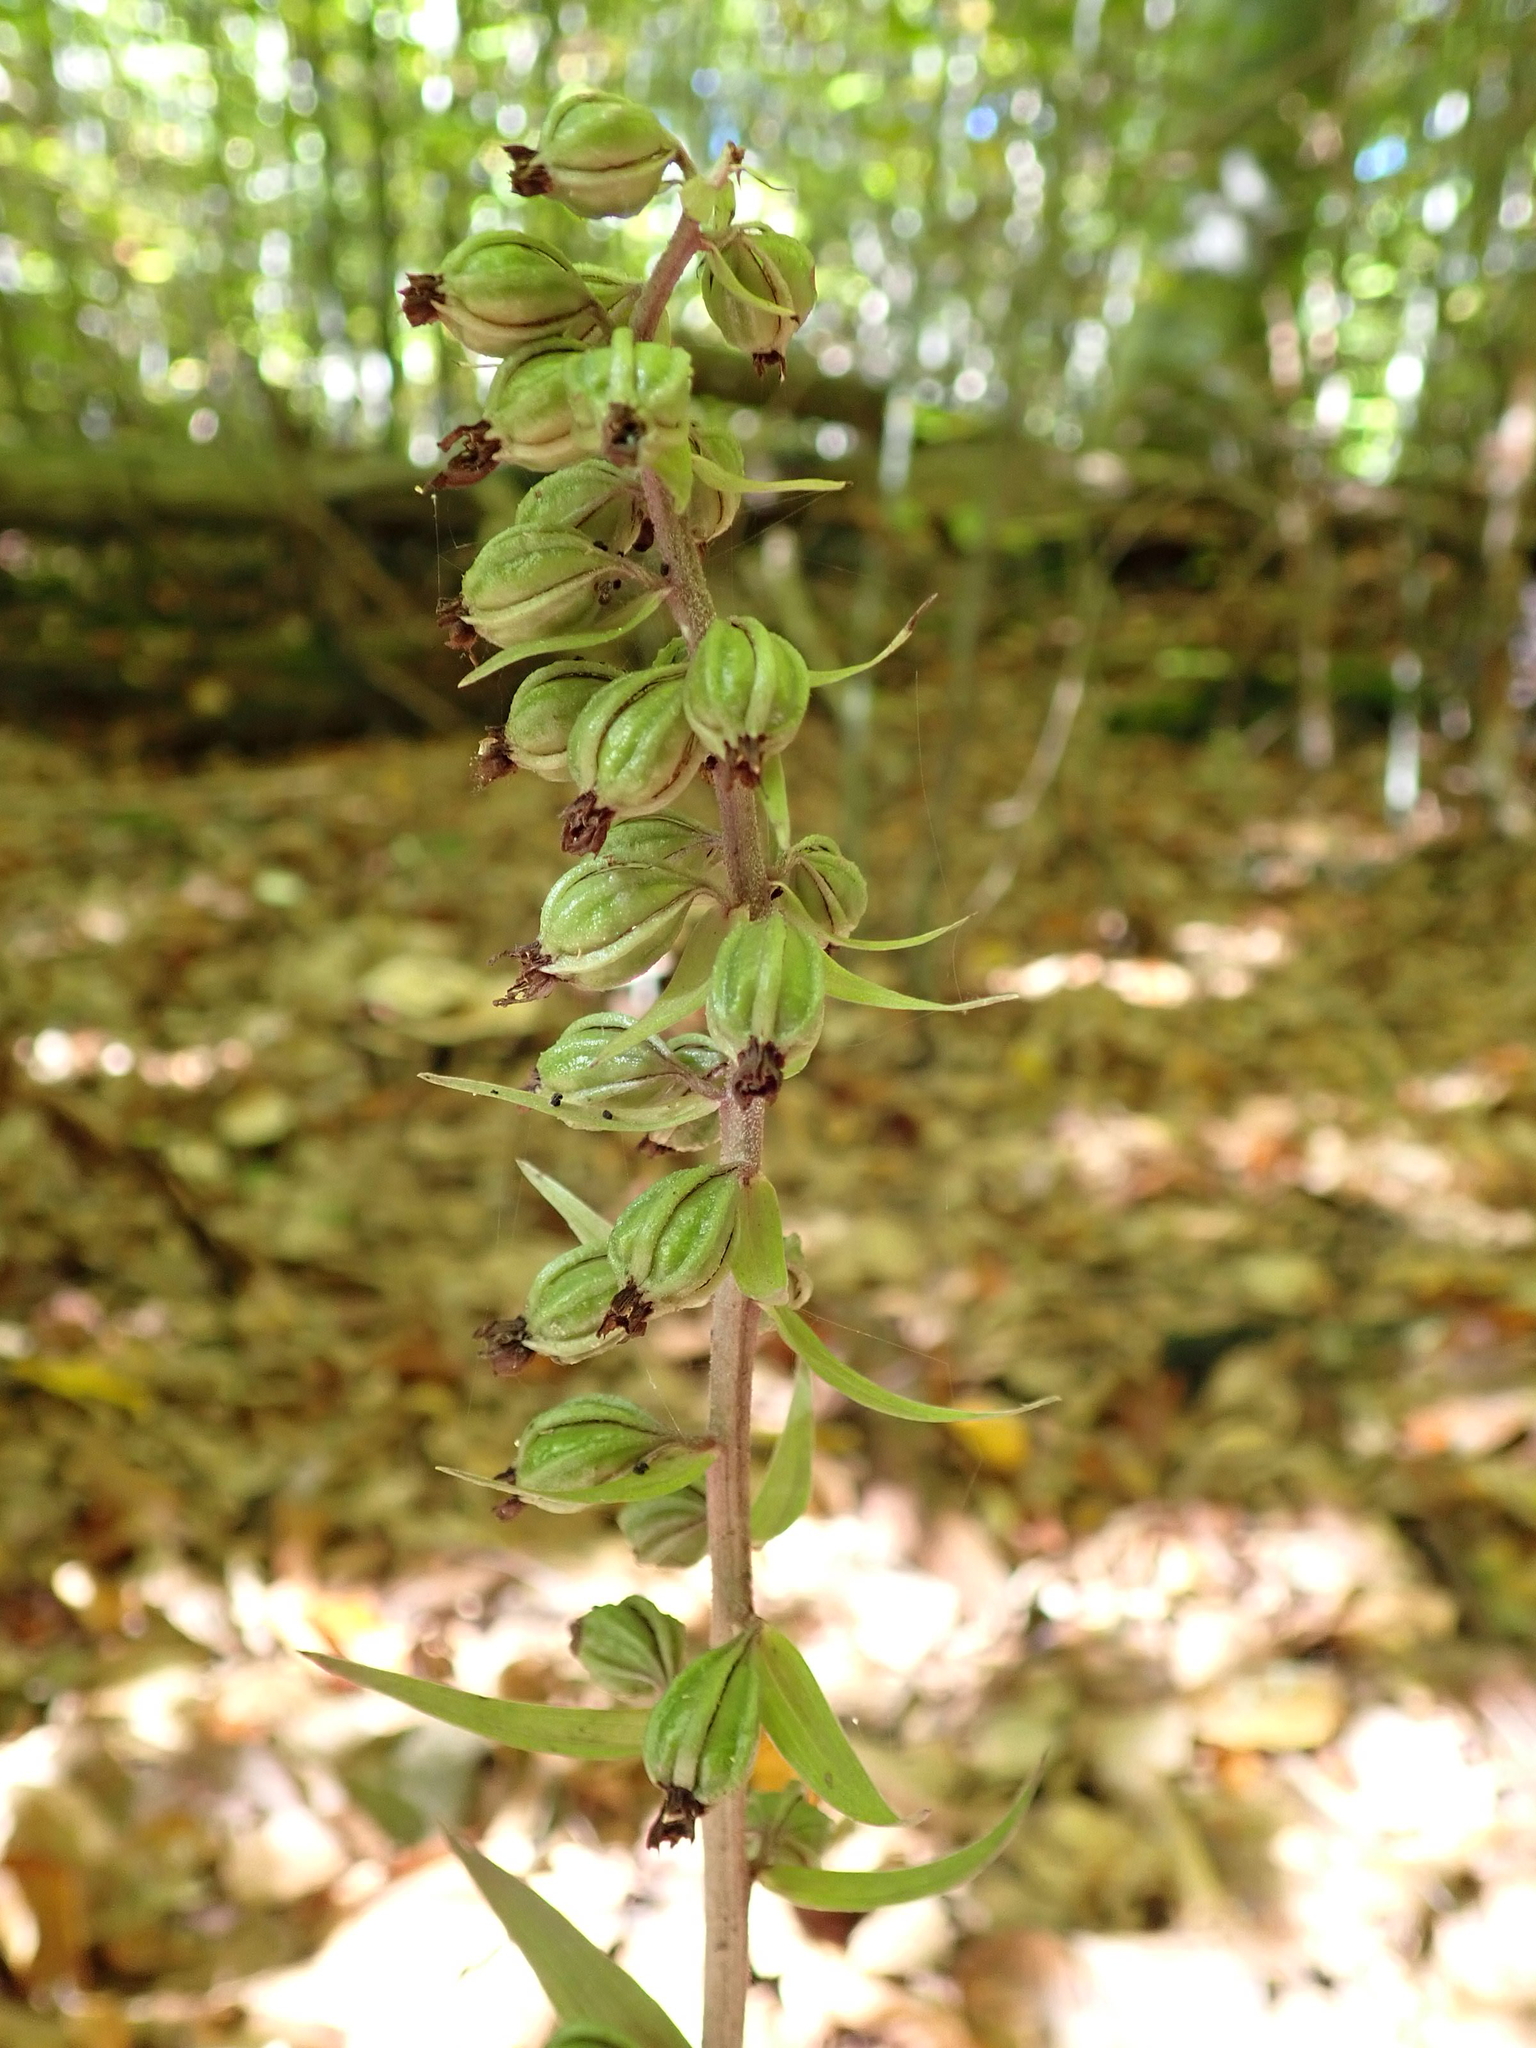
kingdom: Plantae
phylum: Tracheophyta
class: Liliopsida
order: Asparagales
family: Orchidaceae
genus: Epipactis
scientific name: Epipactis purpurata
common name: Violet helleborine
